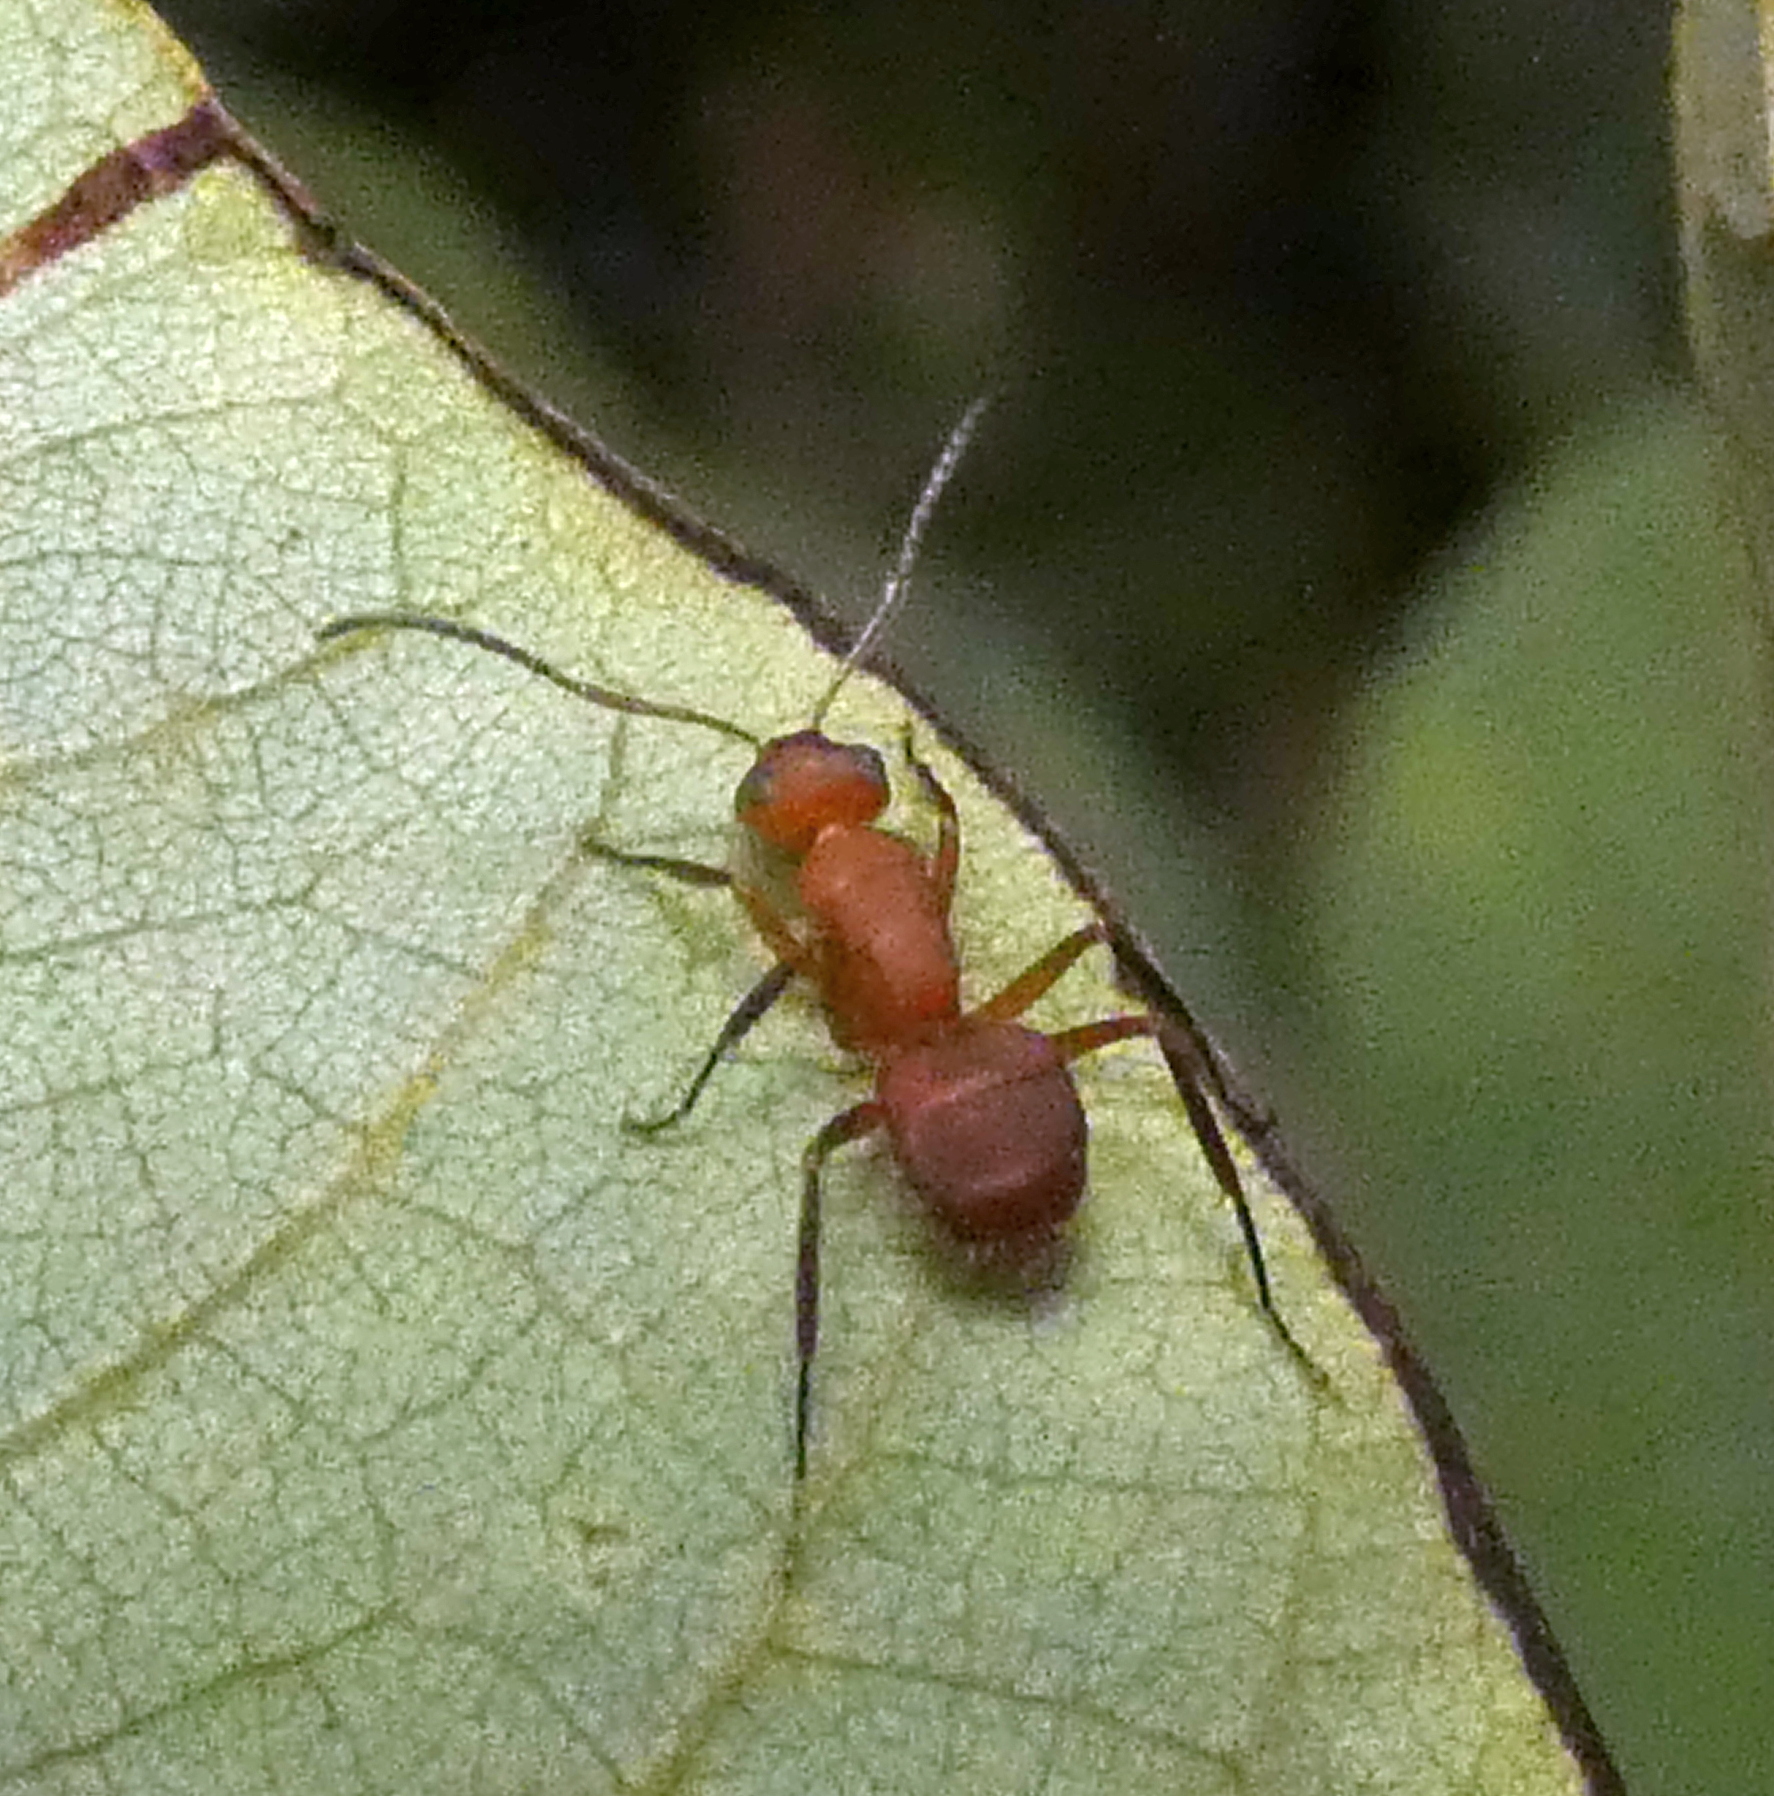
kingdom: Animalia
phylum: Arthropoda
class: Insecta
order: Hymenoptera
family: Formicidae
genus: Camponotus
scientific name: Camponotus rectangularis
